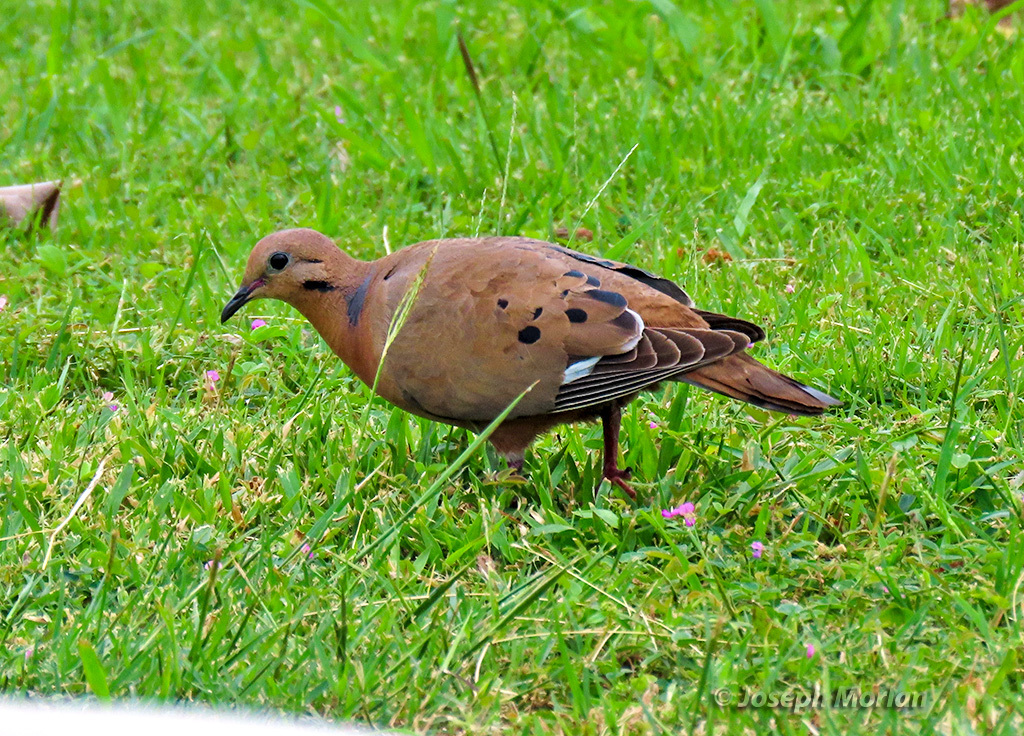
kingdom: Animalia
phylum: Chordata
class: Aves
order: Columbiformes
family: Columbidae
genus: Zenaida
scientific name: Zenaida aurita
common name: Zenaida dove
